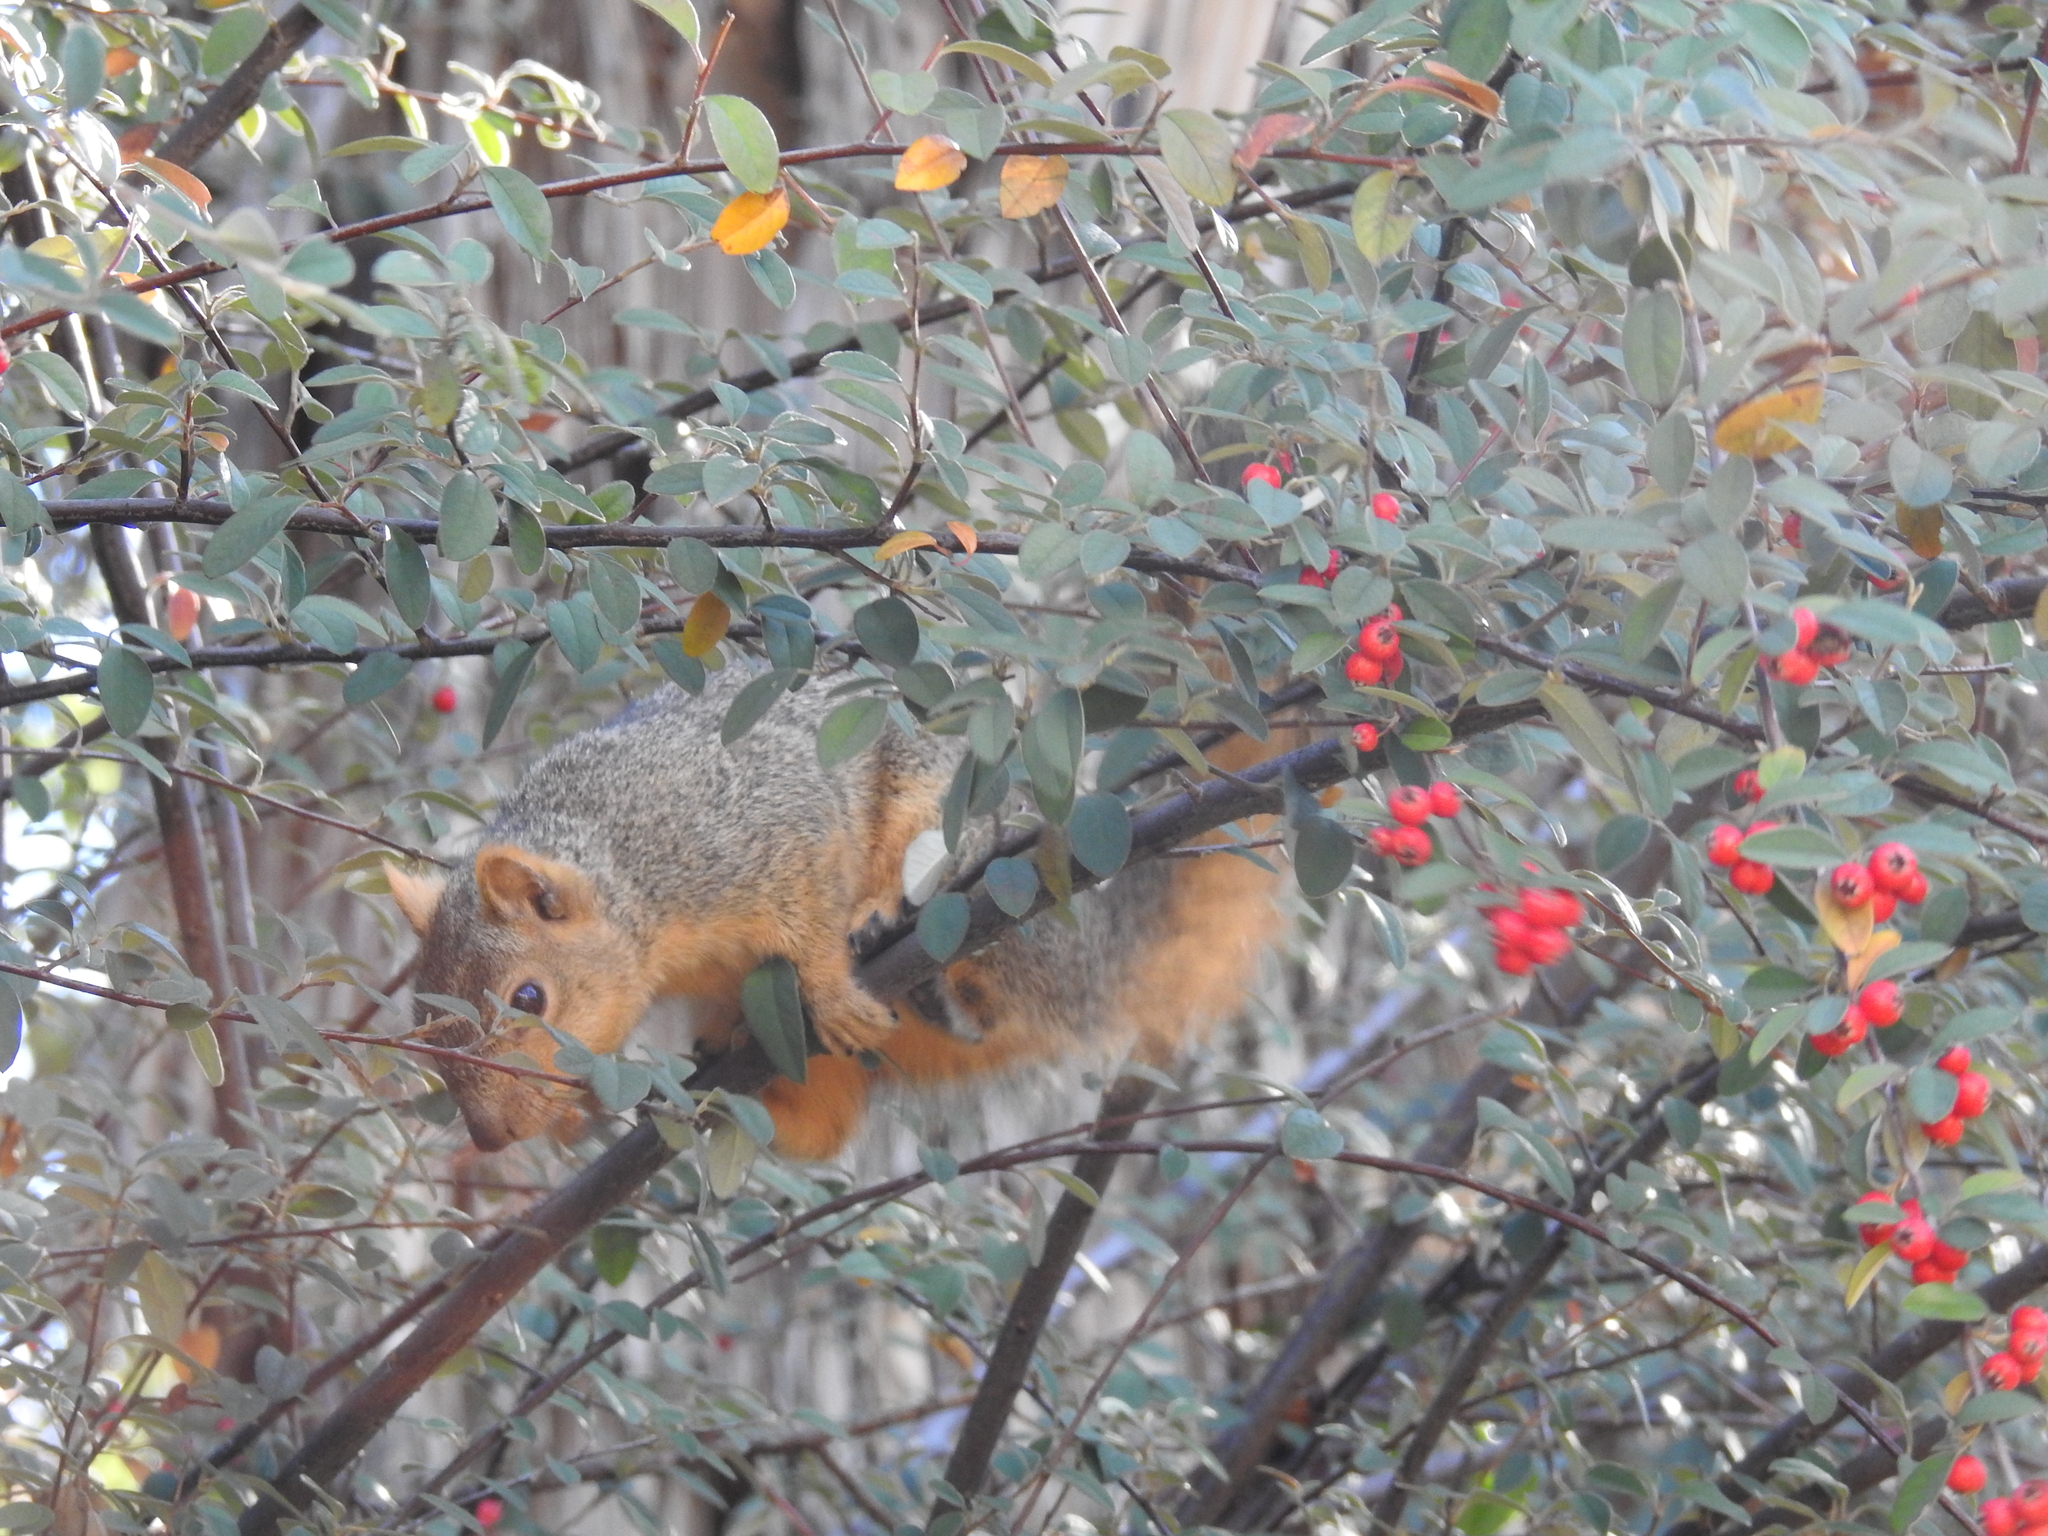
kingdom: Animalia
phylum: Chordata
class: Mammalia
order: Rodentia
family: Sciuridae
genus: Sciurus
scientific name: Sciurus niger
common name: Fox squirrel
